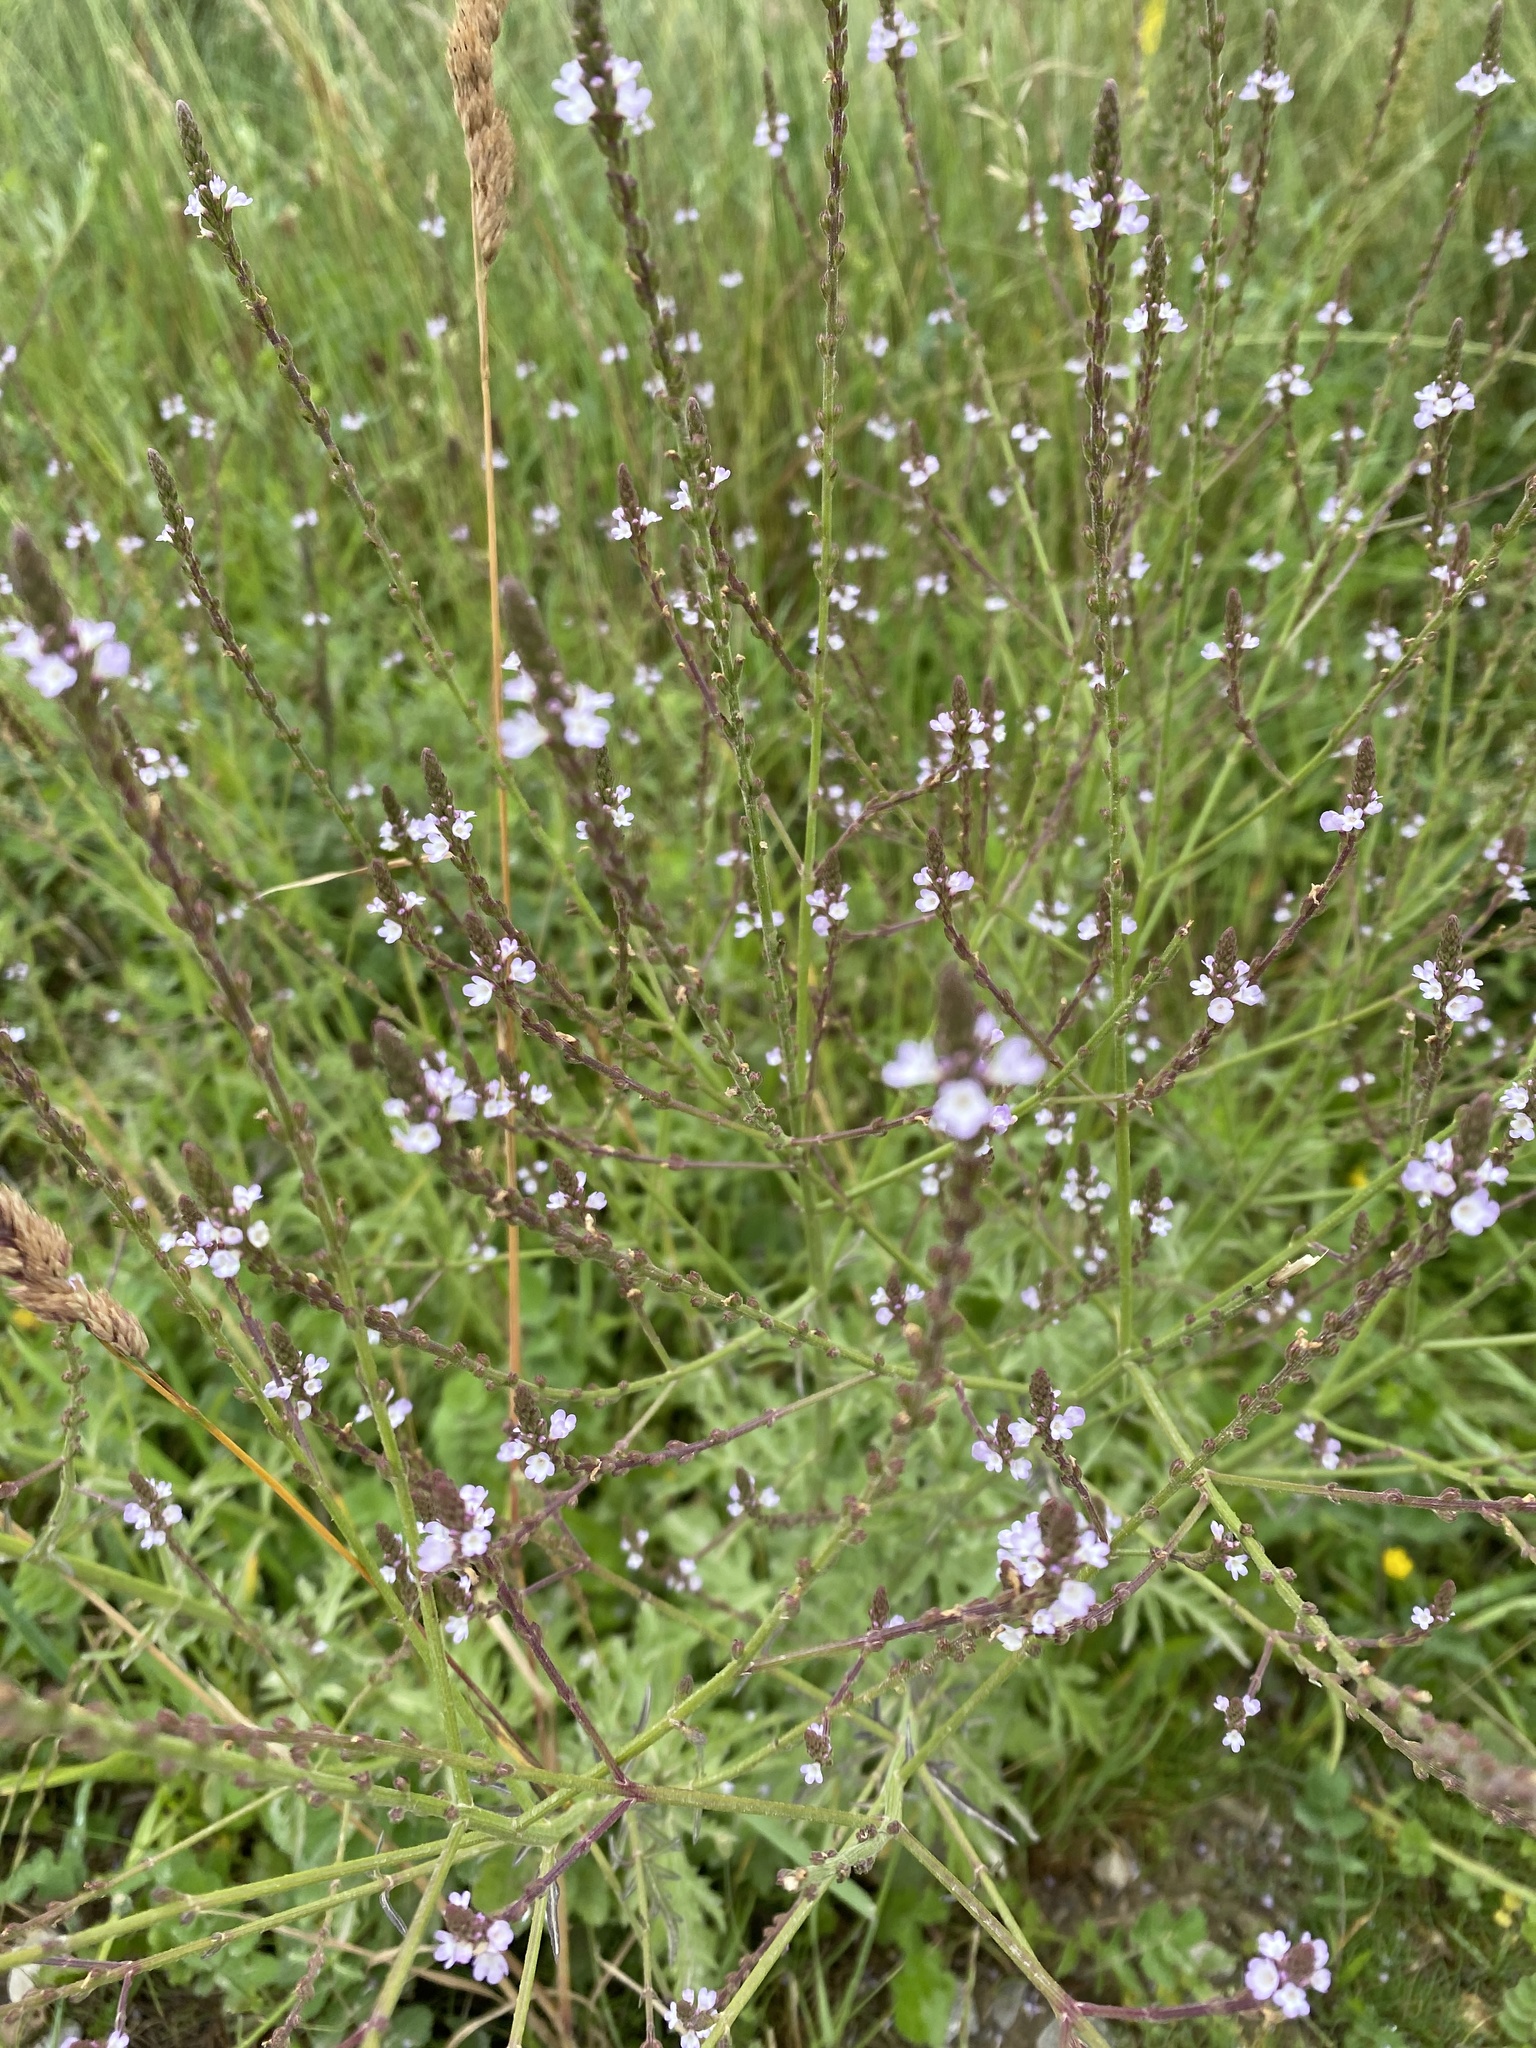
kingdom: Plantae
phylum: Tracheophyta
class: Magnoliopsida
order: Lamiales
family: Verbenaceae
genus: Verbena
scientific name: Verbena officinalis
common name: Vervain
